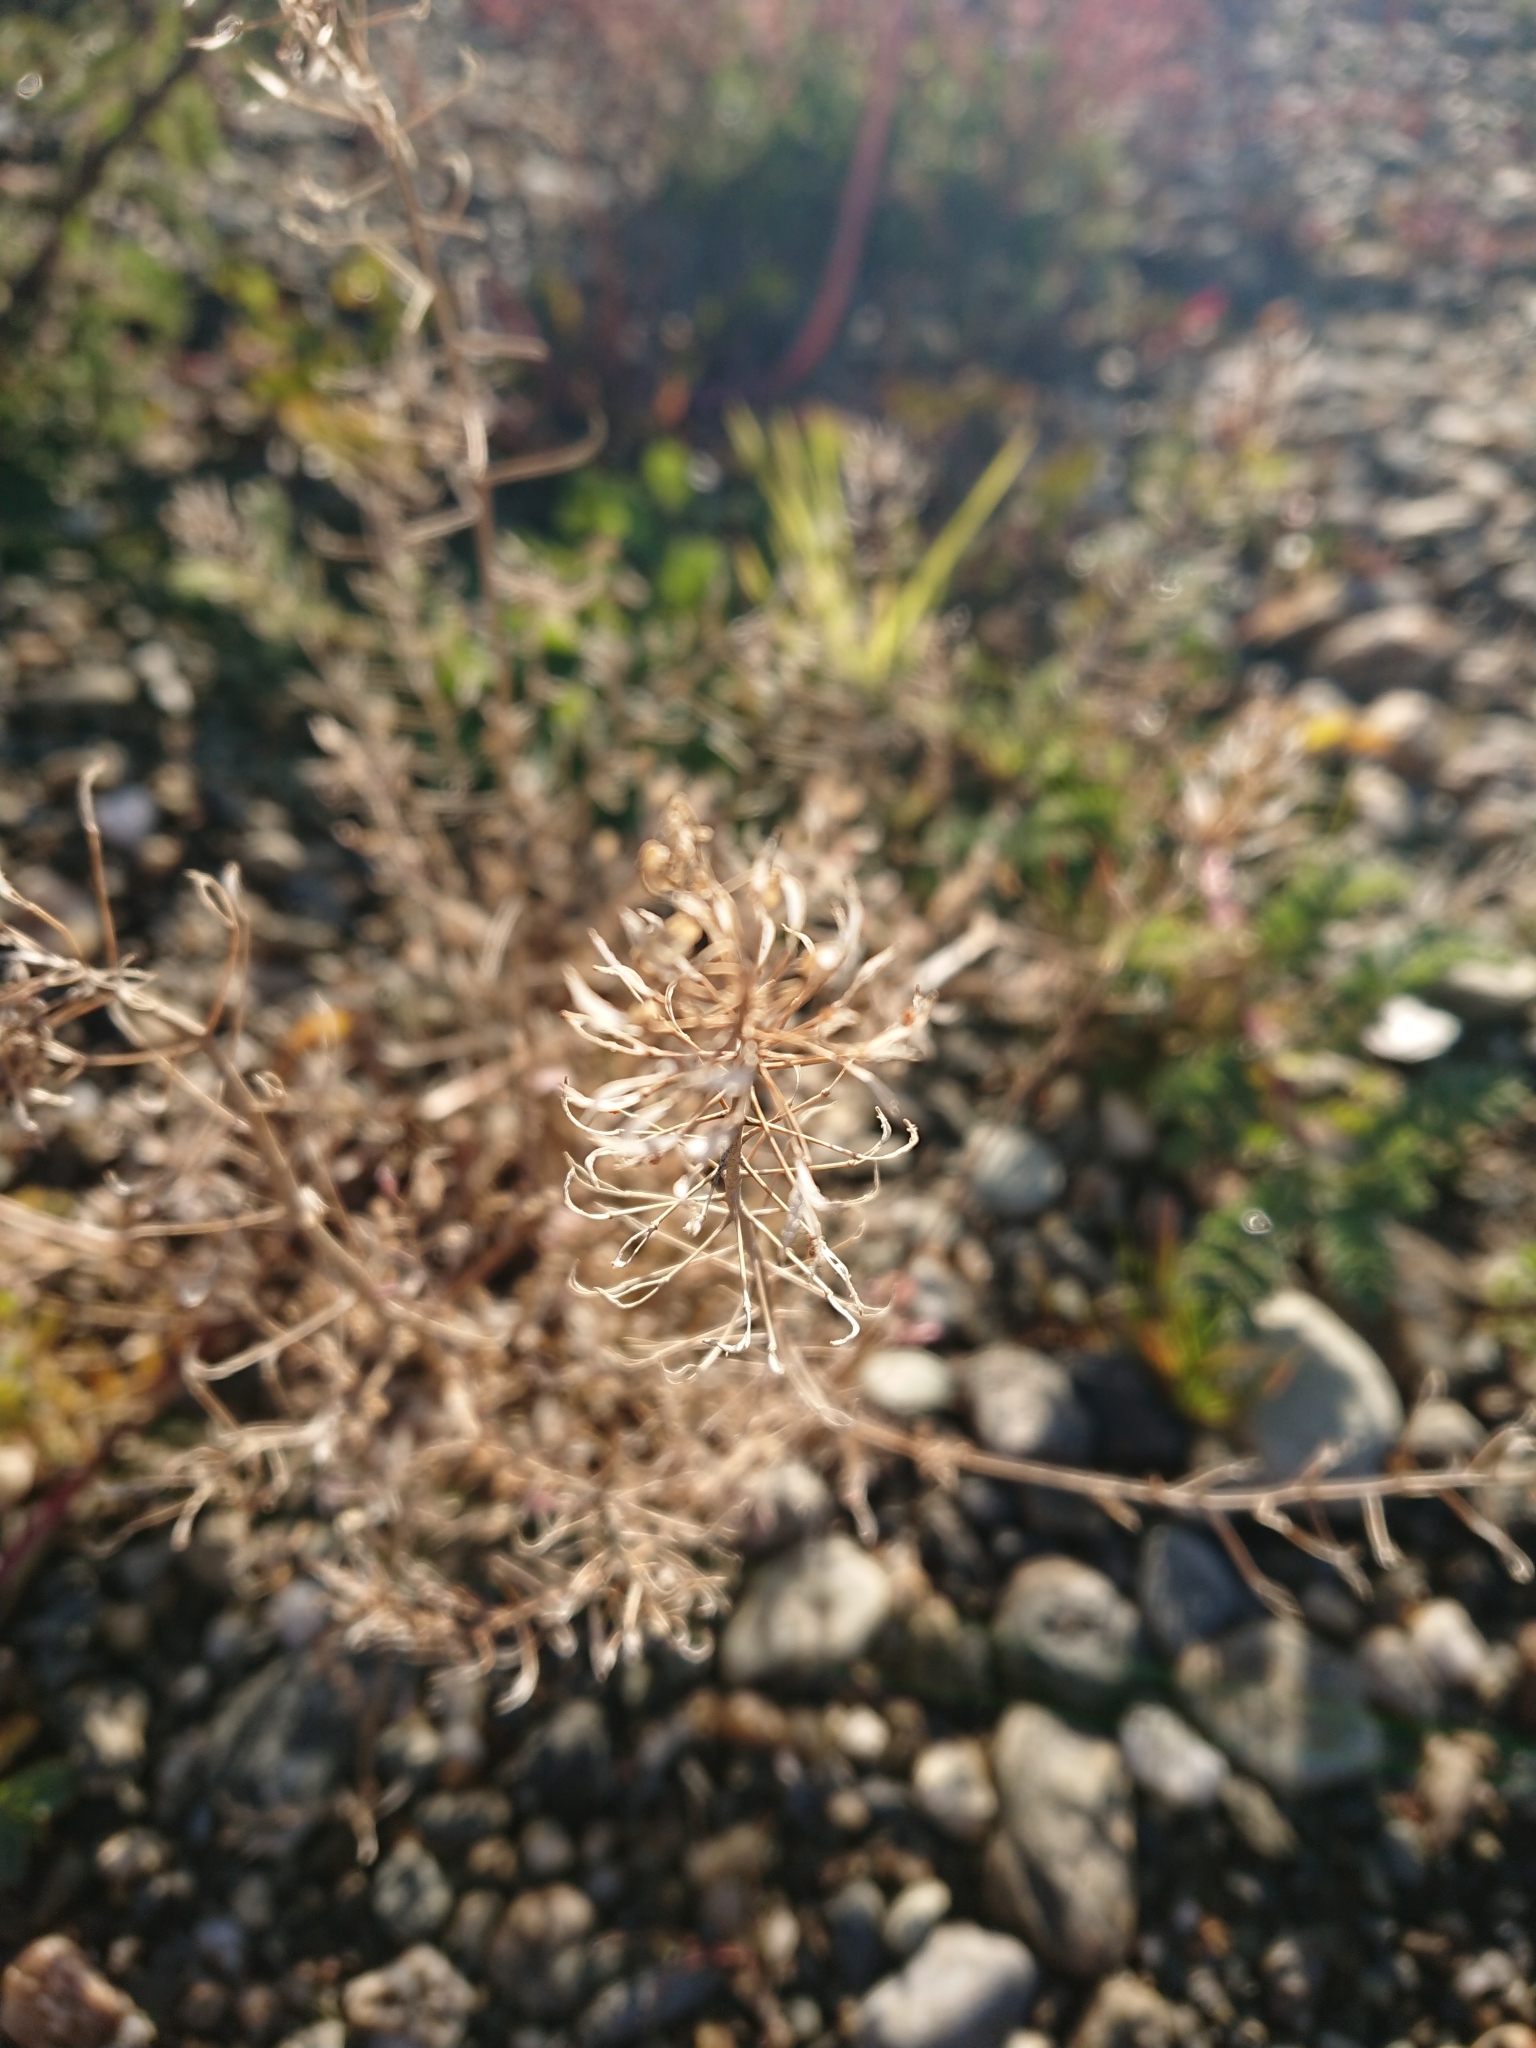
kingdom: Plantae
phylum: Tracheophyta
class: Magnoliopsida
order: Brassicales
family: Brassicaceae
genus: Capsella
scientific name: Capsella bursa-pastoris
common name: Shepherd's purse
